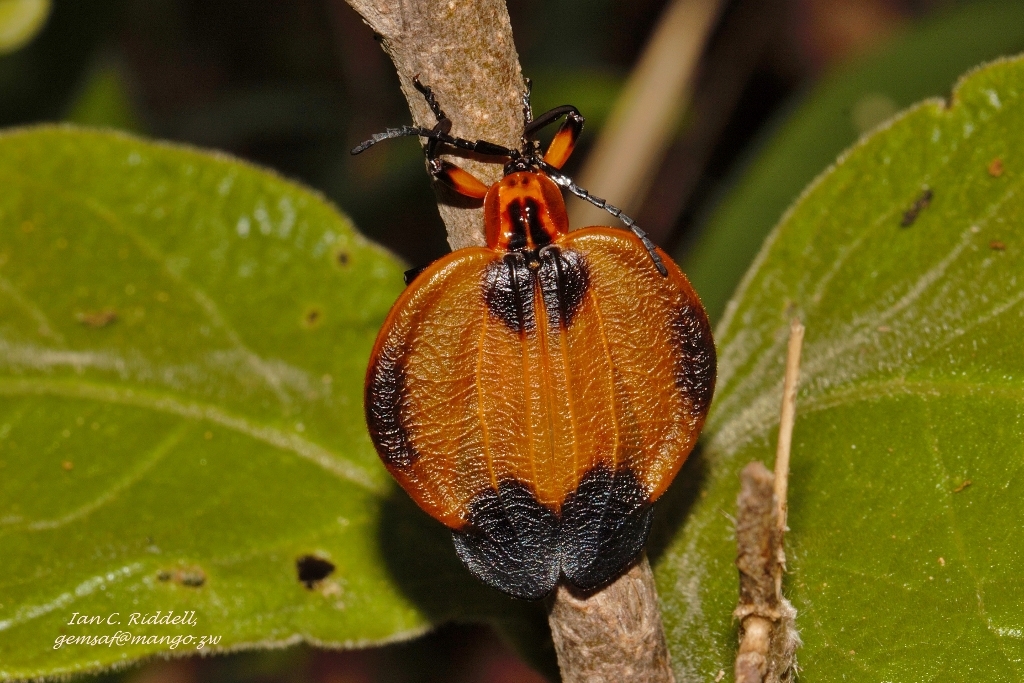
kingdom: Animalia
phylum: Arthropoda
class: Insecta
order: Coleoptera
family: Lycidae
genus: Lycus
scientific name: Lycus
